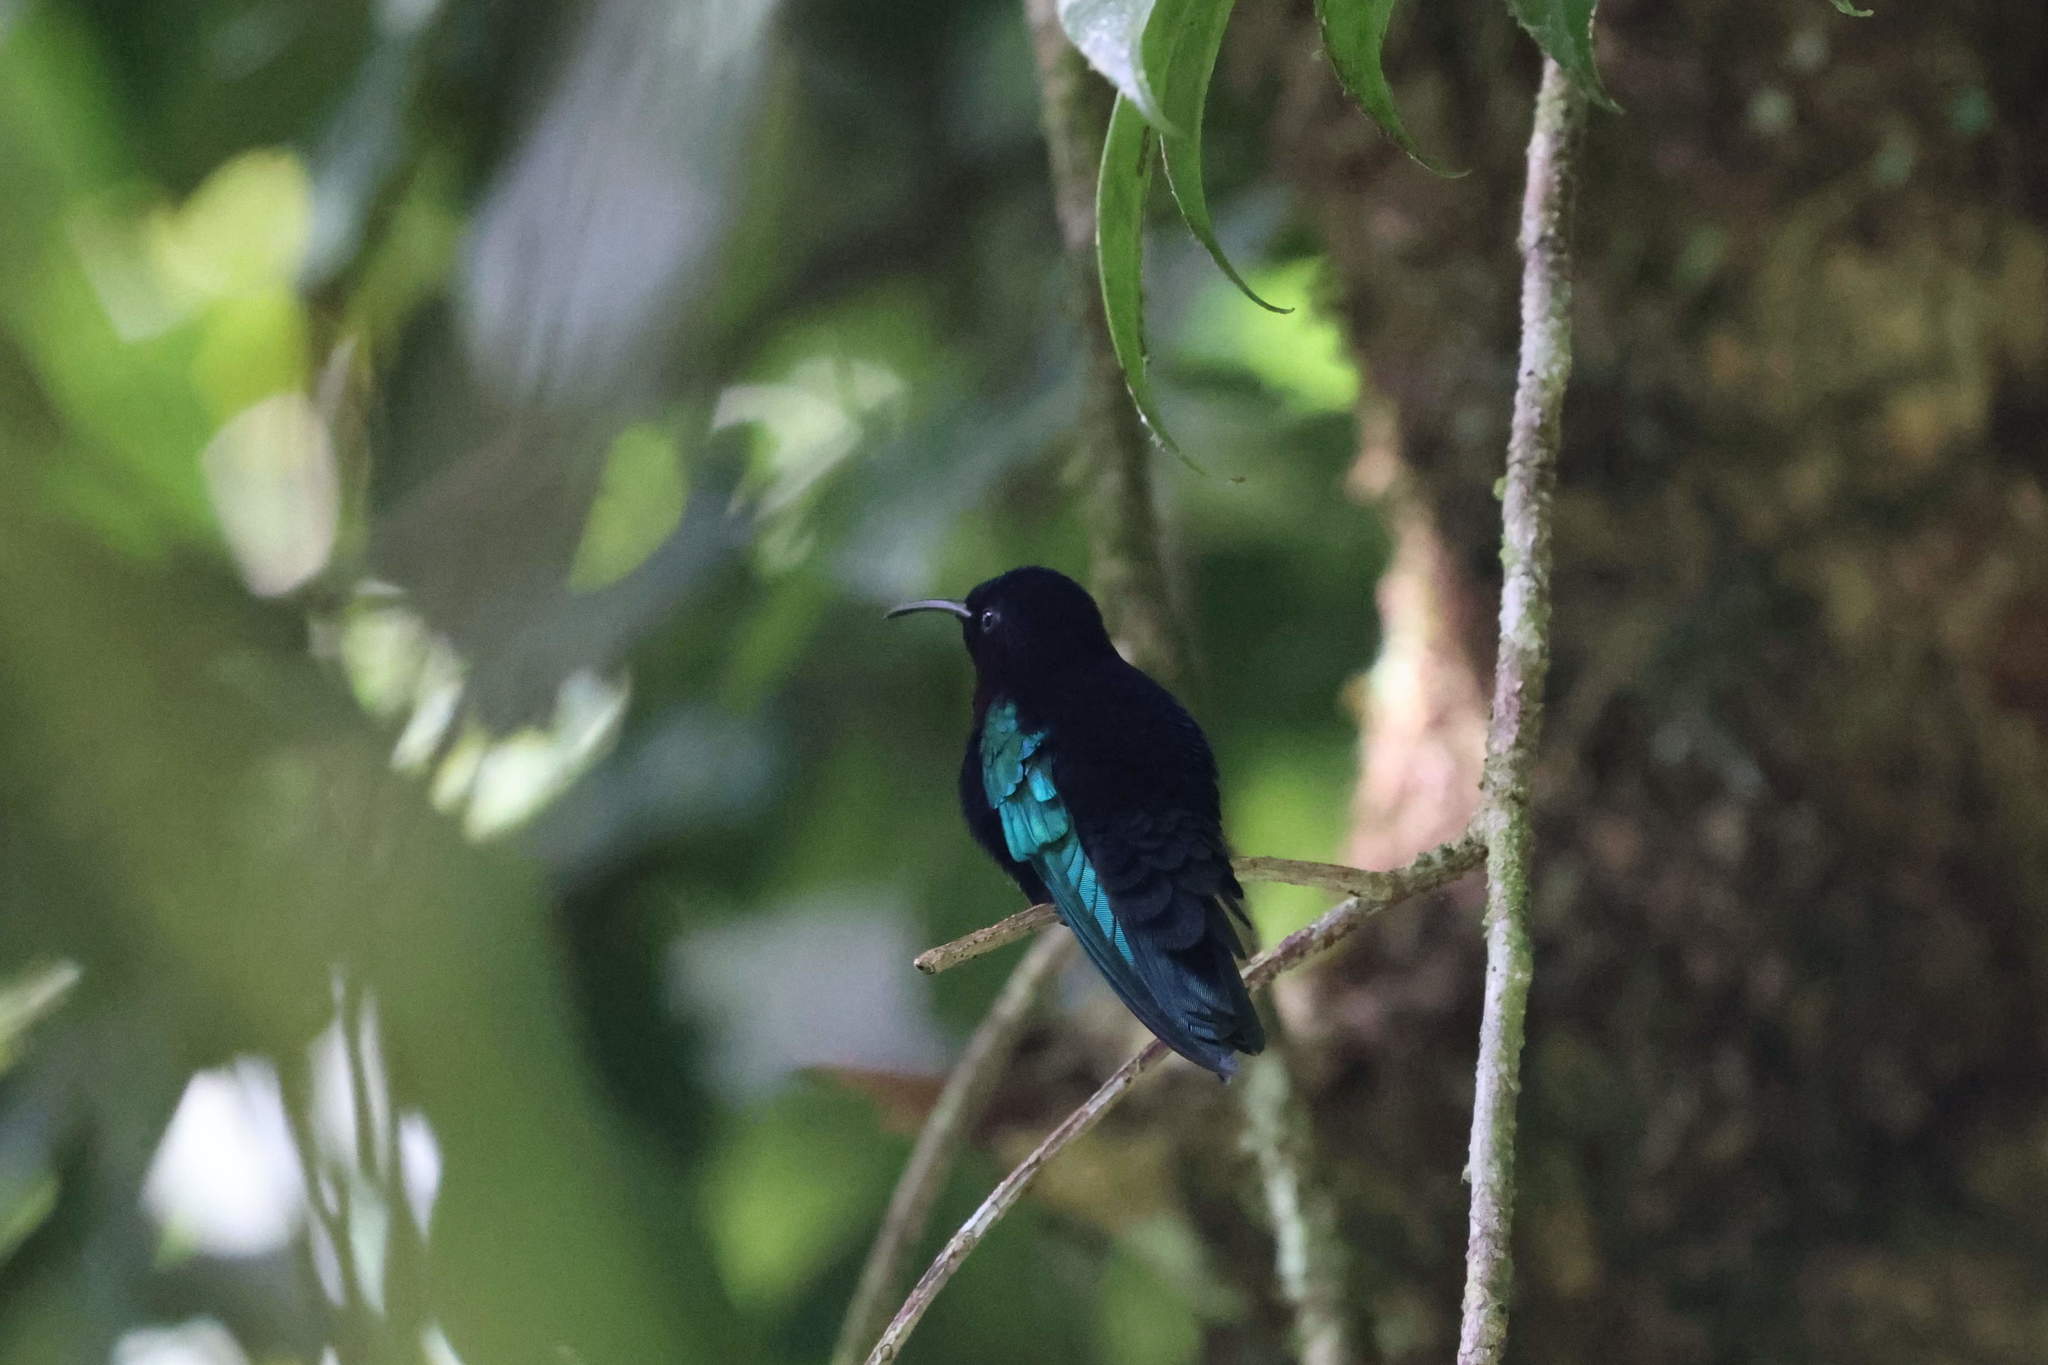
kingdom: Animalia
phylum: Chordata
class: Aves
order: Apodiformes
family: Trochilidae
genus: Eulampis
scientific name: Eulampis jugularis
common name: Purple-throated carib
